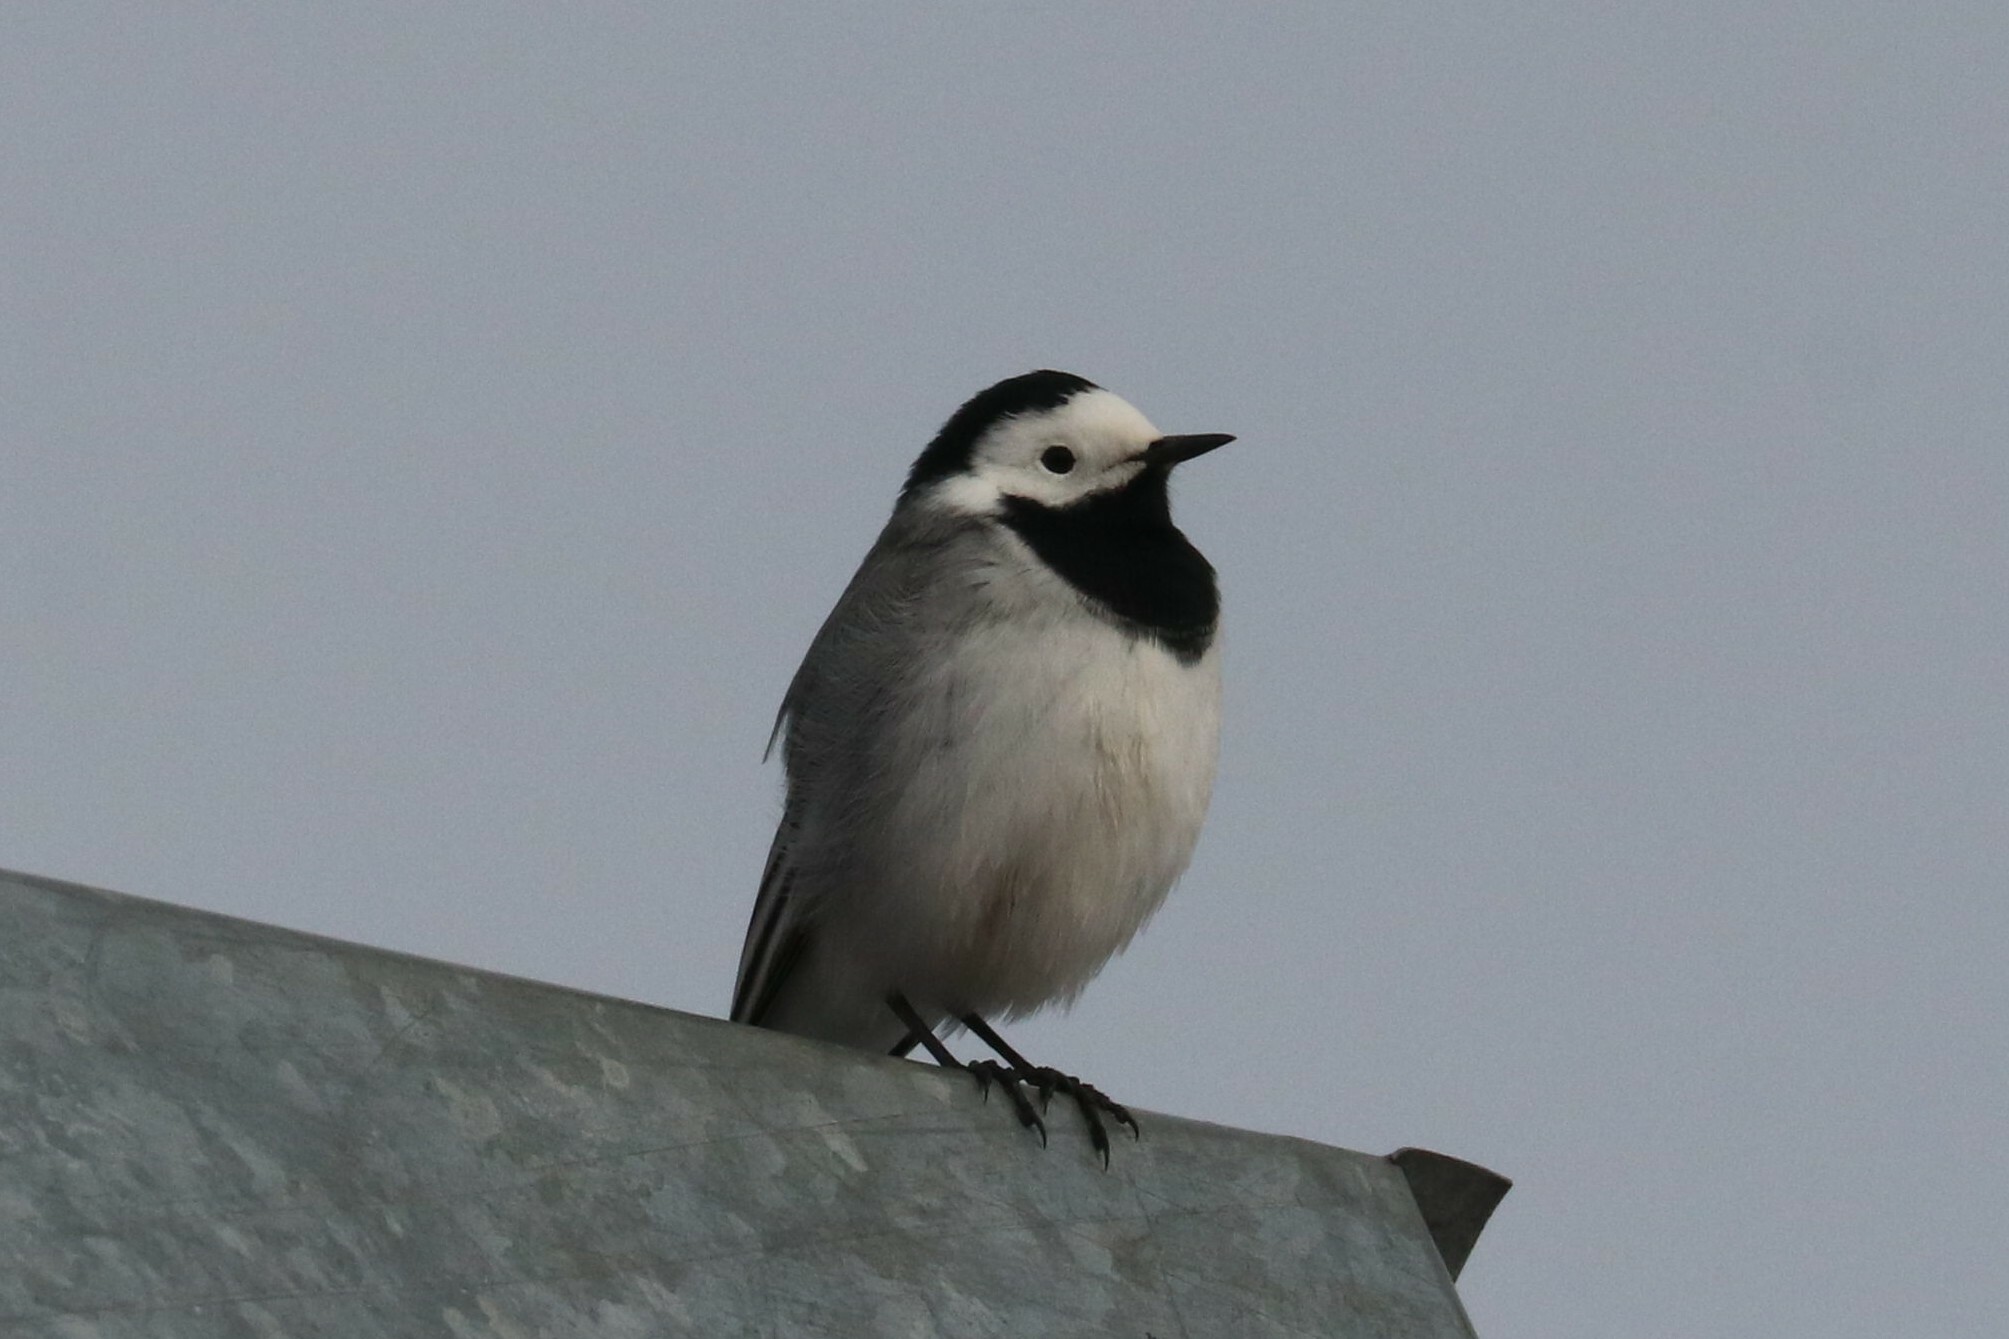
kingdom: Animalia
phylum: Chordata
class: Aves
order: Passeriformes
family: Motacillidae
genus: Motacilla
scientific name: Motacilla alba
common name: White wagtail
